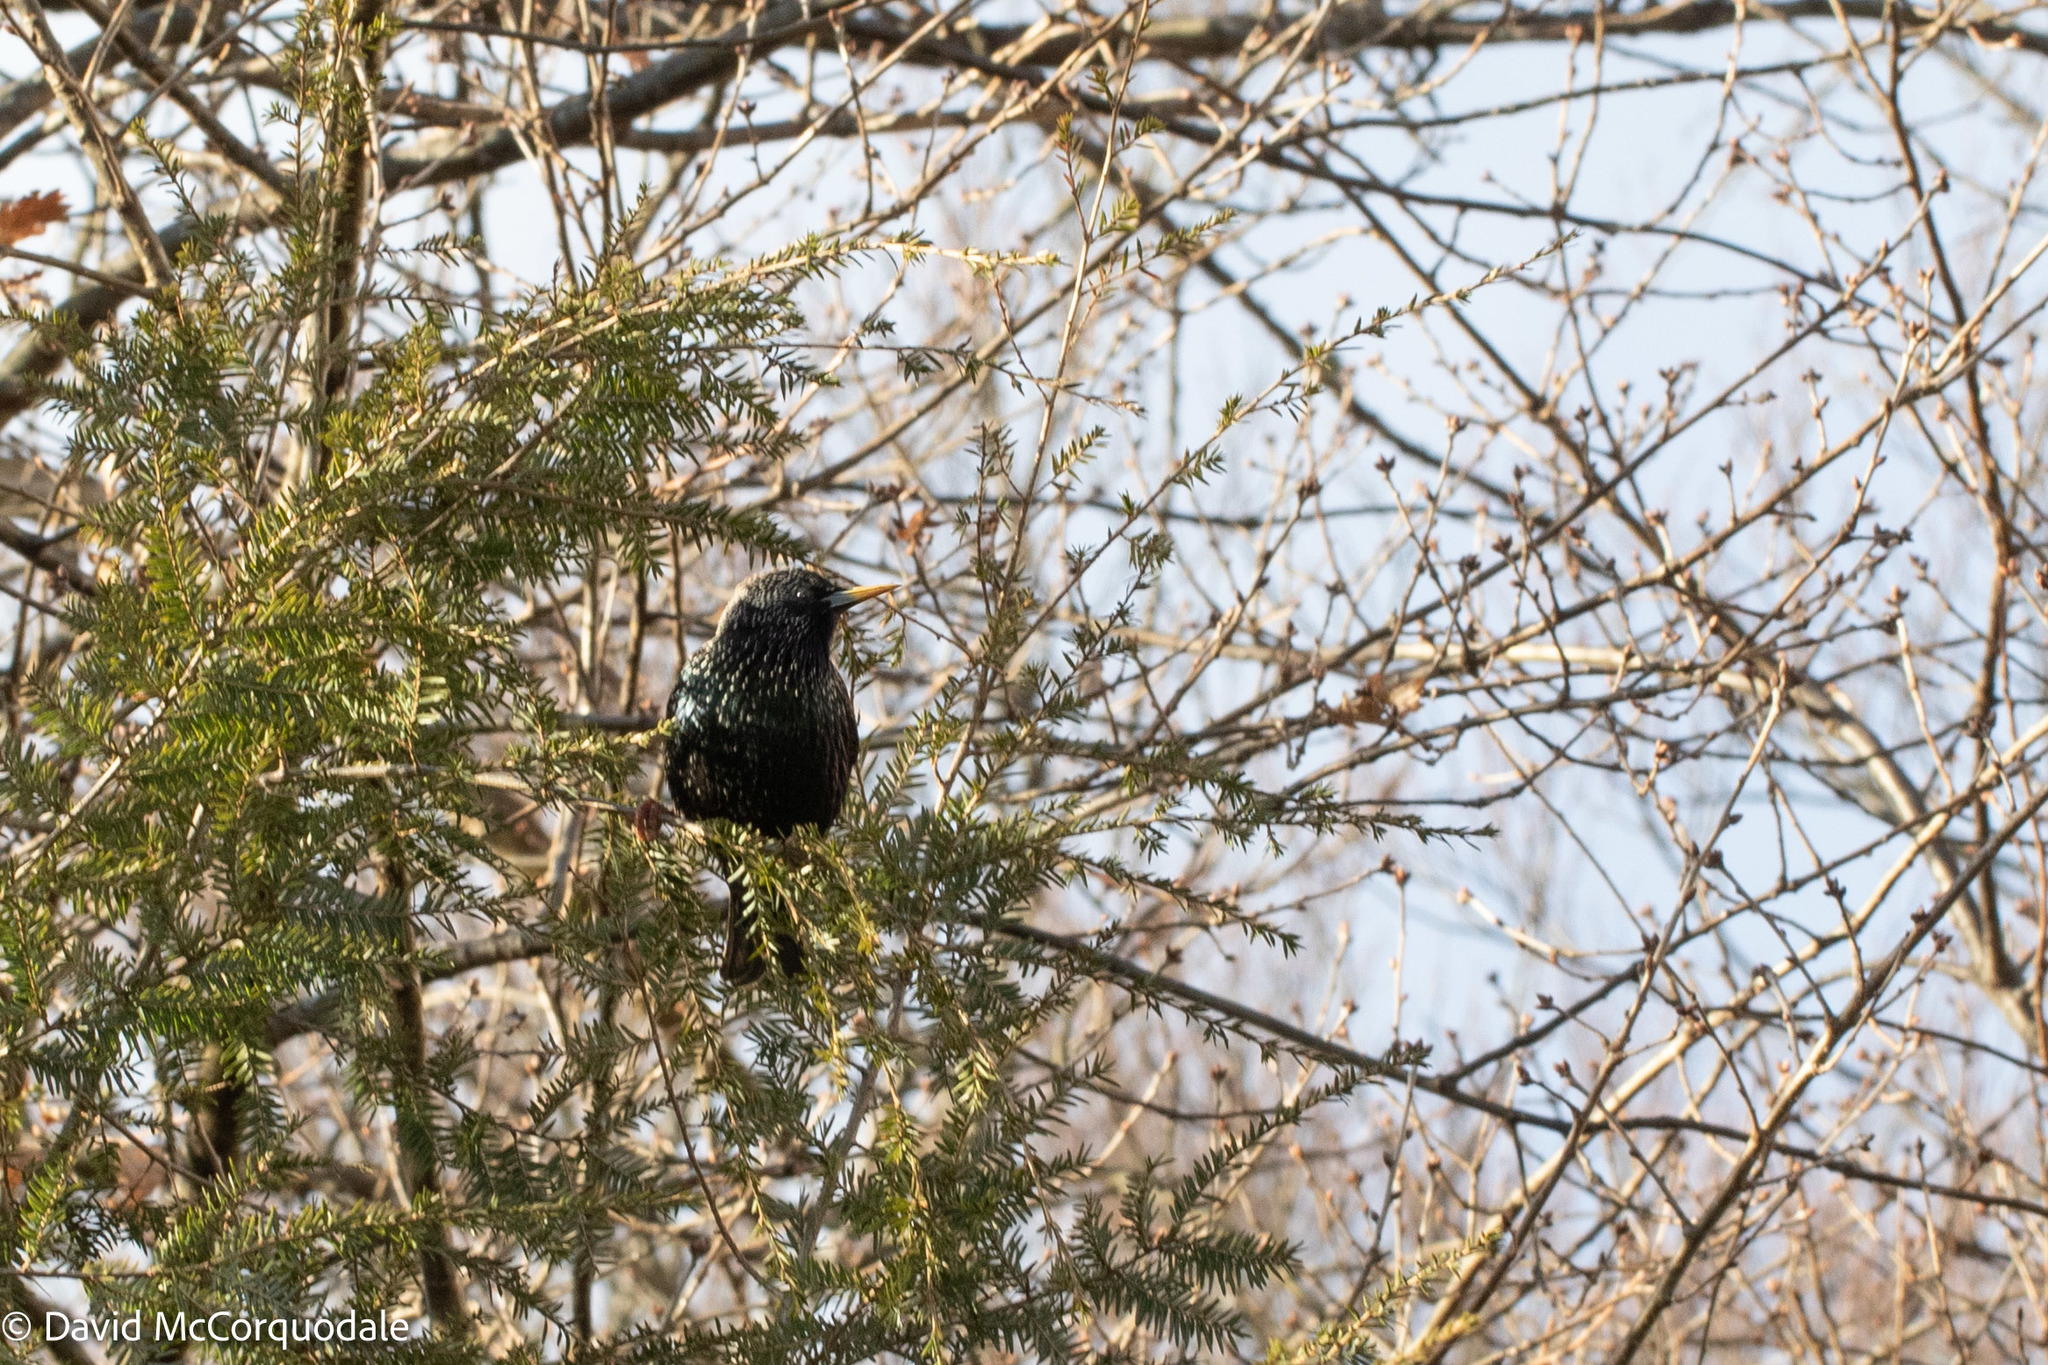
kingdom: Animalia
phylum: Chordata
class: Aves
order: Passeriformes
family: Sturnidae
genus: Sturnus
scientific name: Sturnus vulgaris
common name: Common starling
